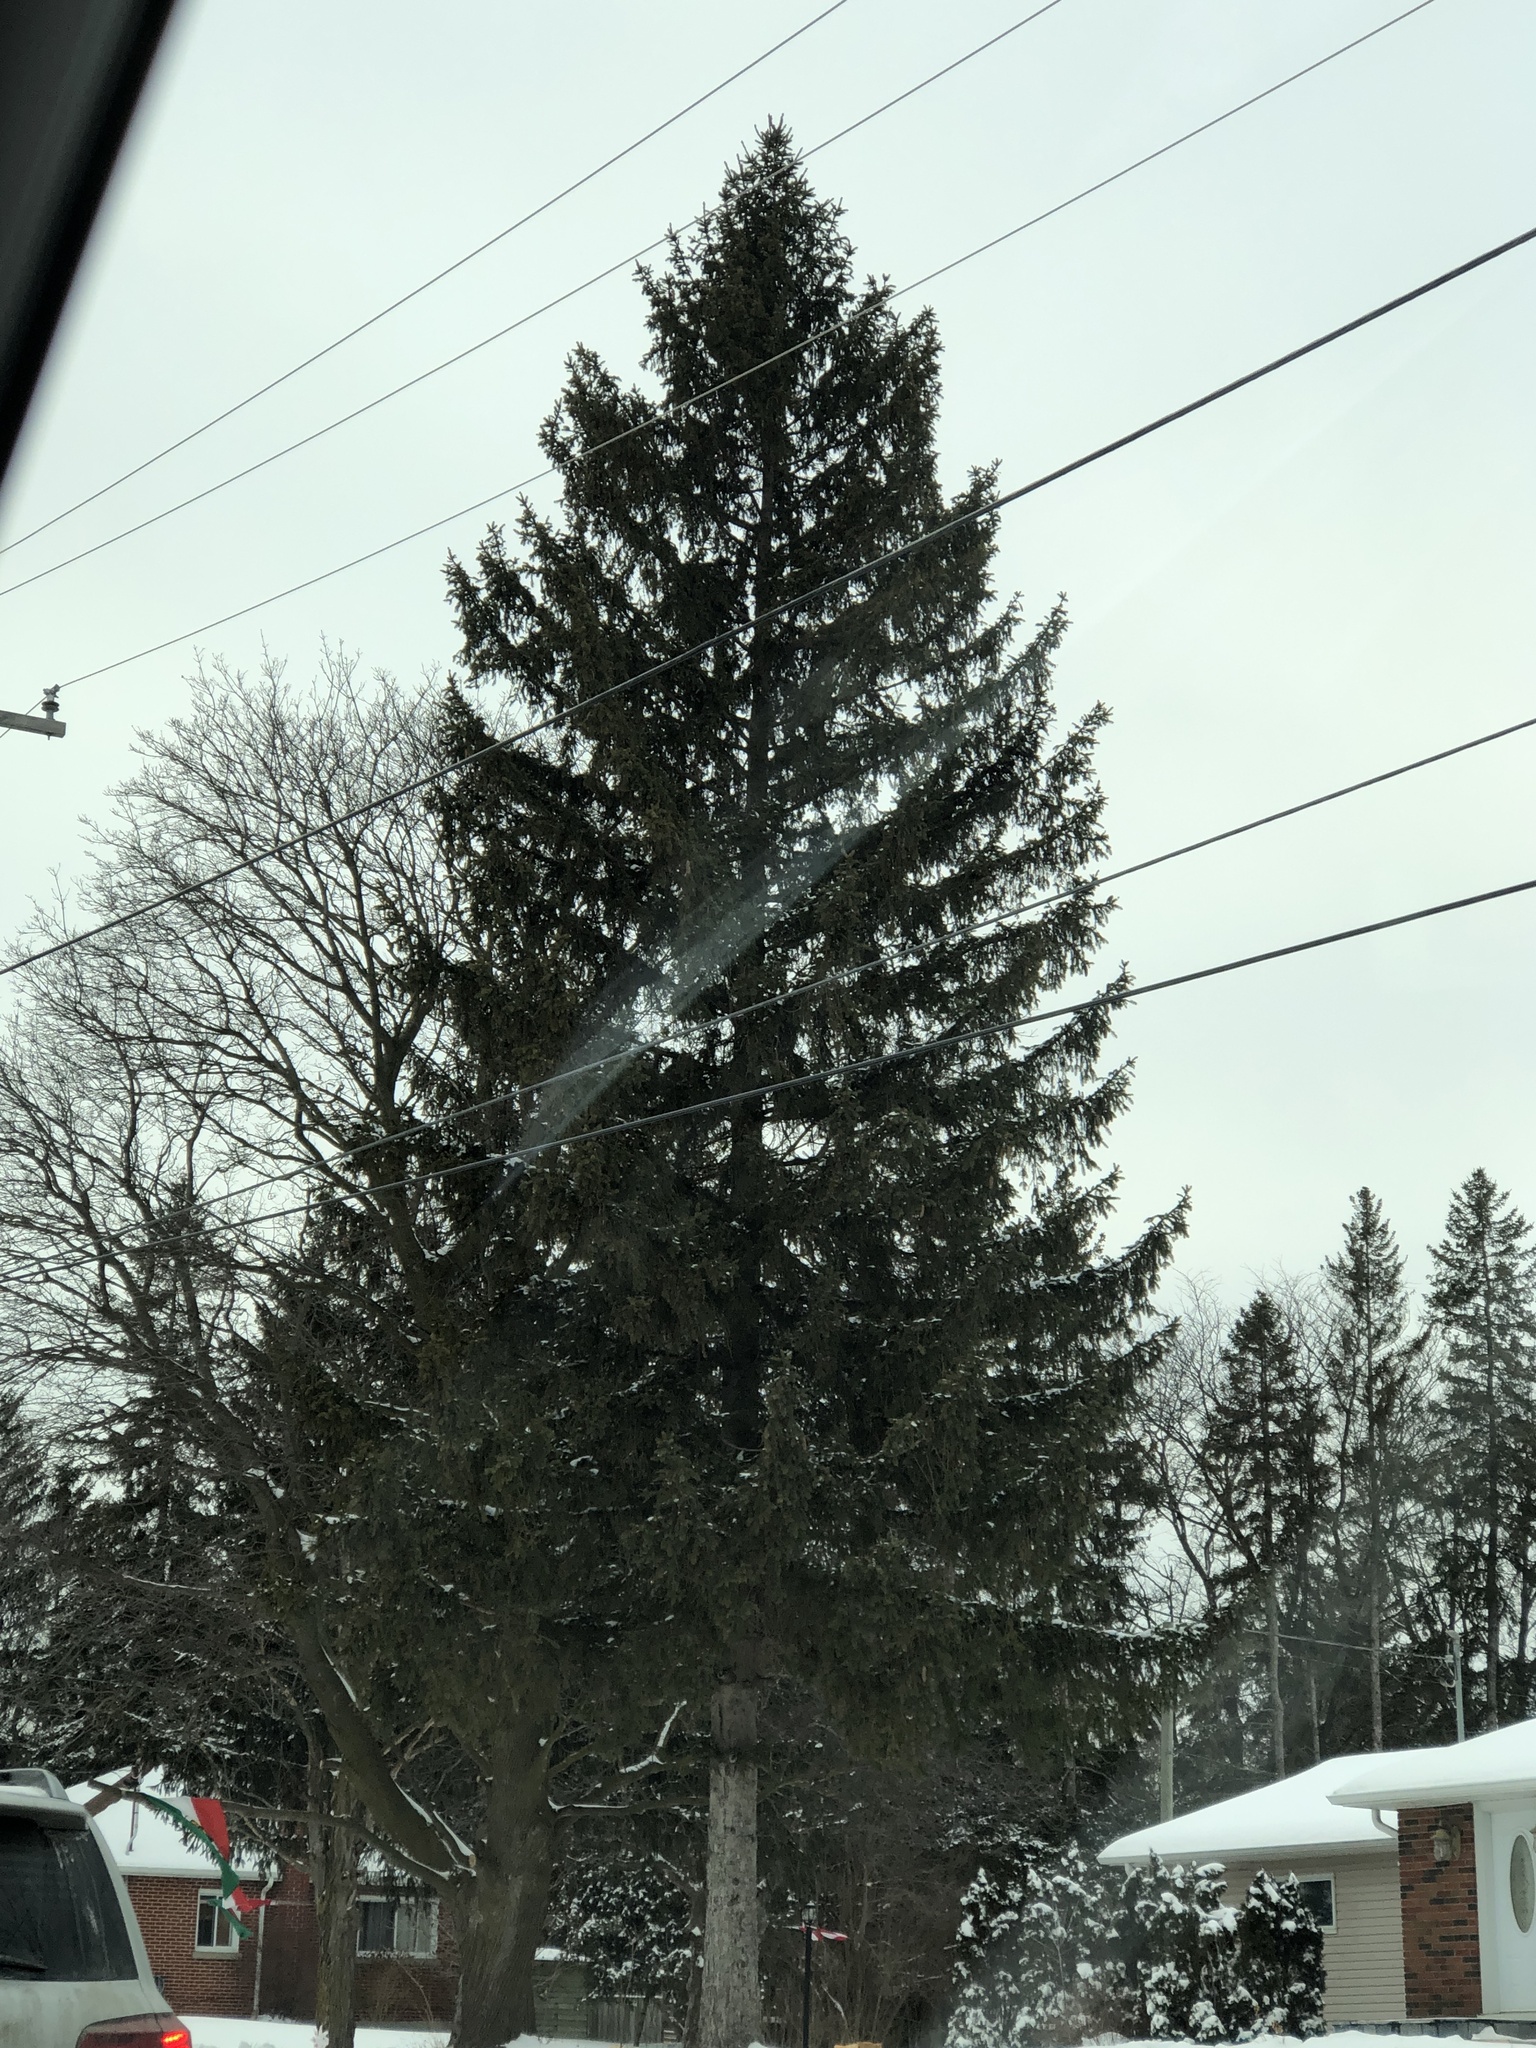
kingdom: Plantae
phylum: Tracheophyta
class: Pinopsida
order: Pinales
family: Pinaceae
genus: Picea
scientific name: Picea abies
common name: Norway spruce
